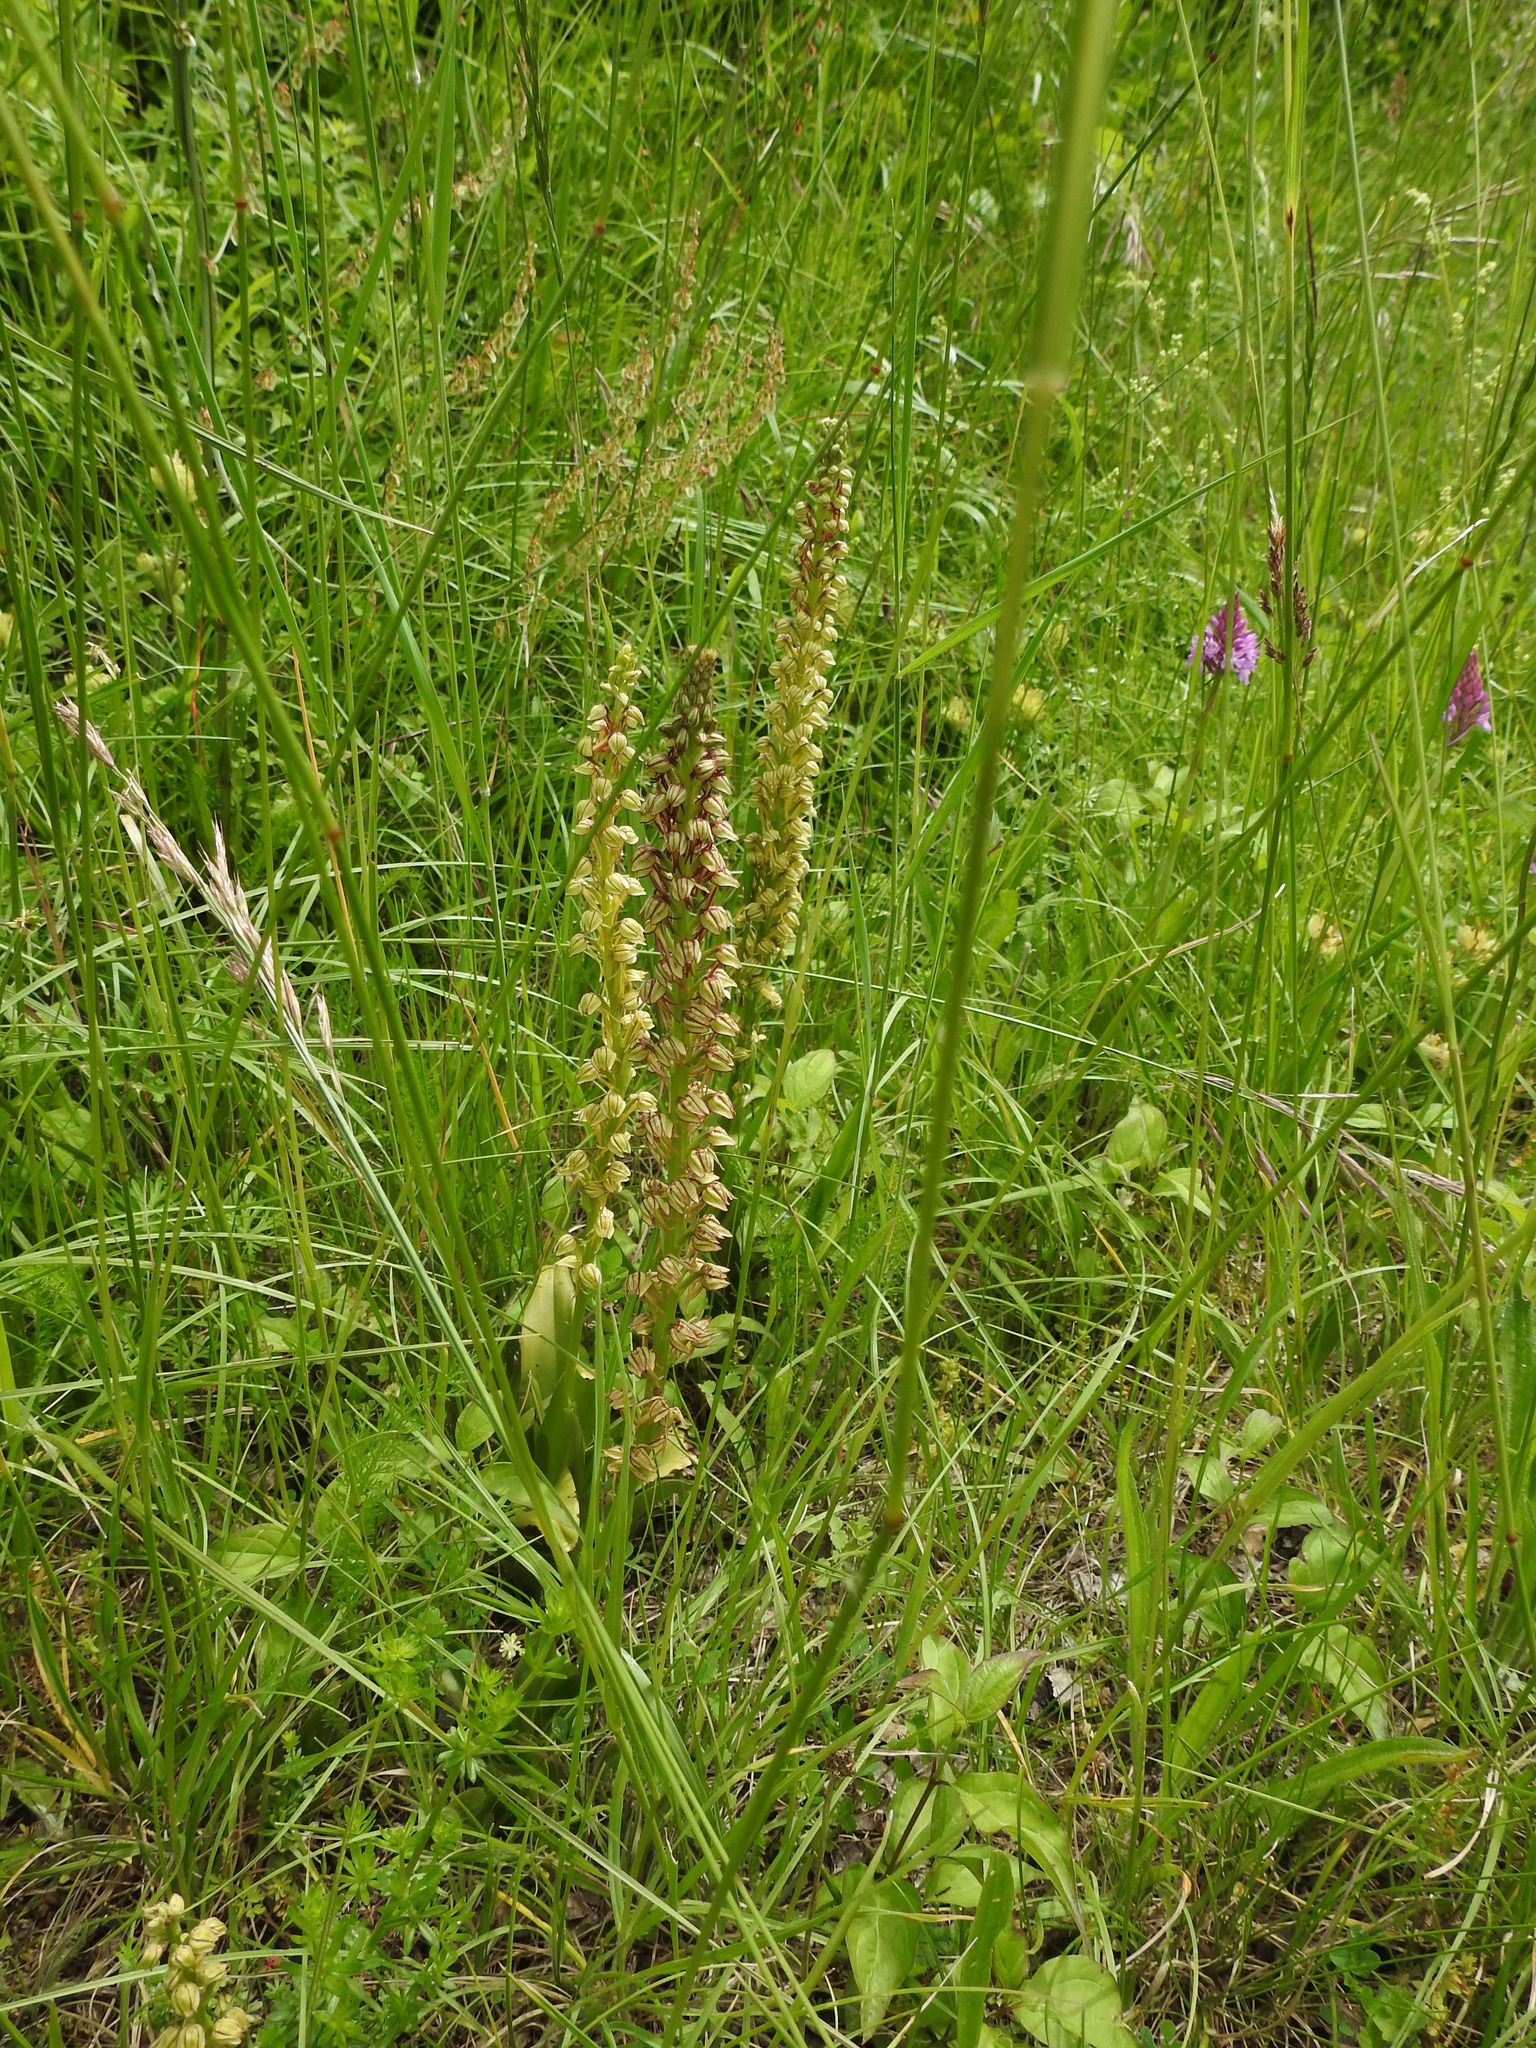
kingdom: Plantae
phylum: Tracheophyta
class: Liliopsida
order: Asparagales
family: Orchidaceae
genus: Orchis
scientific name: Orchis anthropophora
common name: Man orchid
